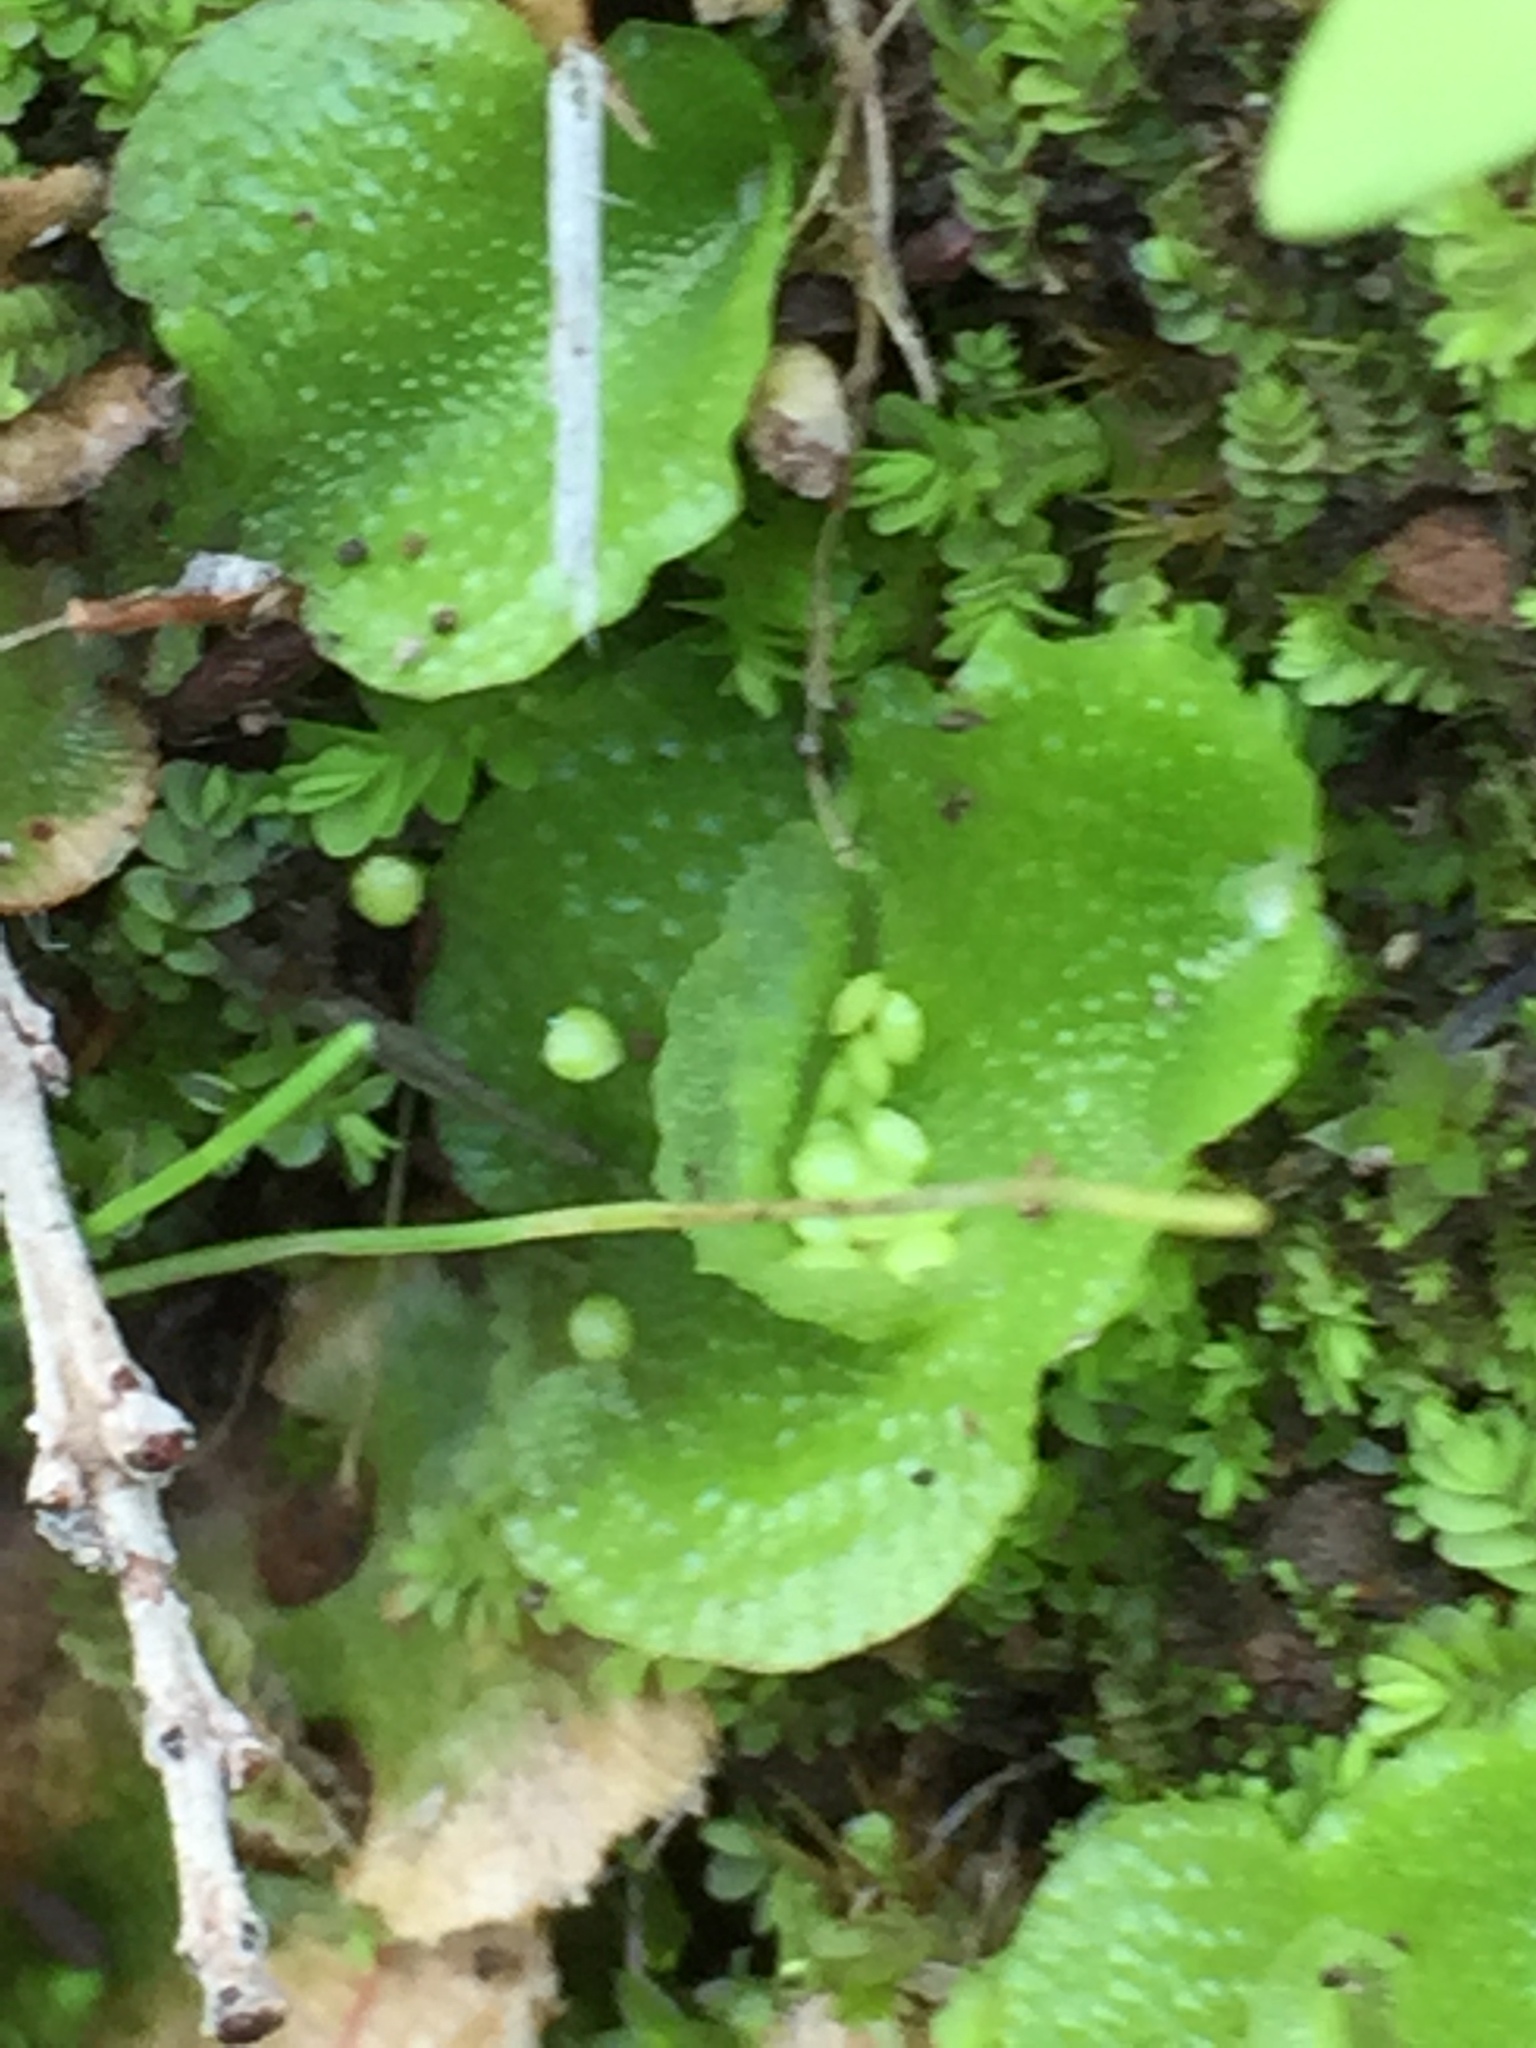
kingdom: Plantae
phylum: Marchantiophyta
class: Marchantiopsida
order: Lunulariales
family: Lunulariaceae
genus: Lunularia
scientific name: Lunularia cruciata
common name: Crescent-cup liverwort
